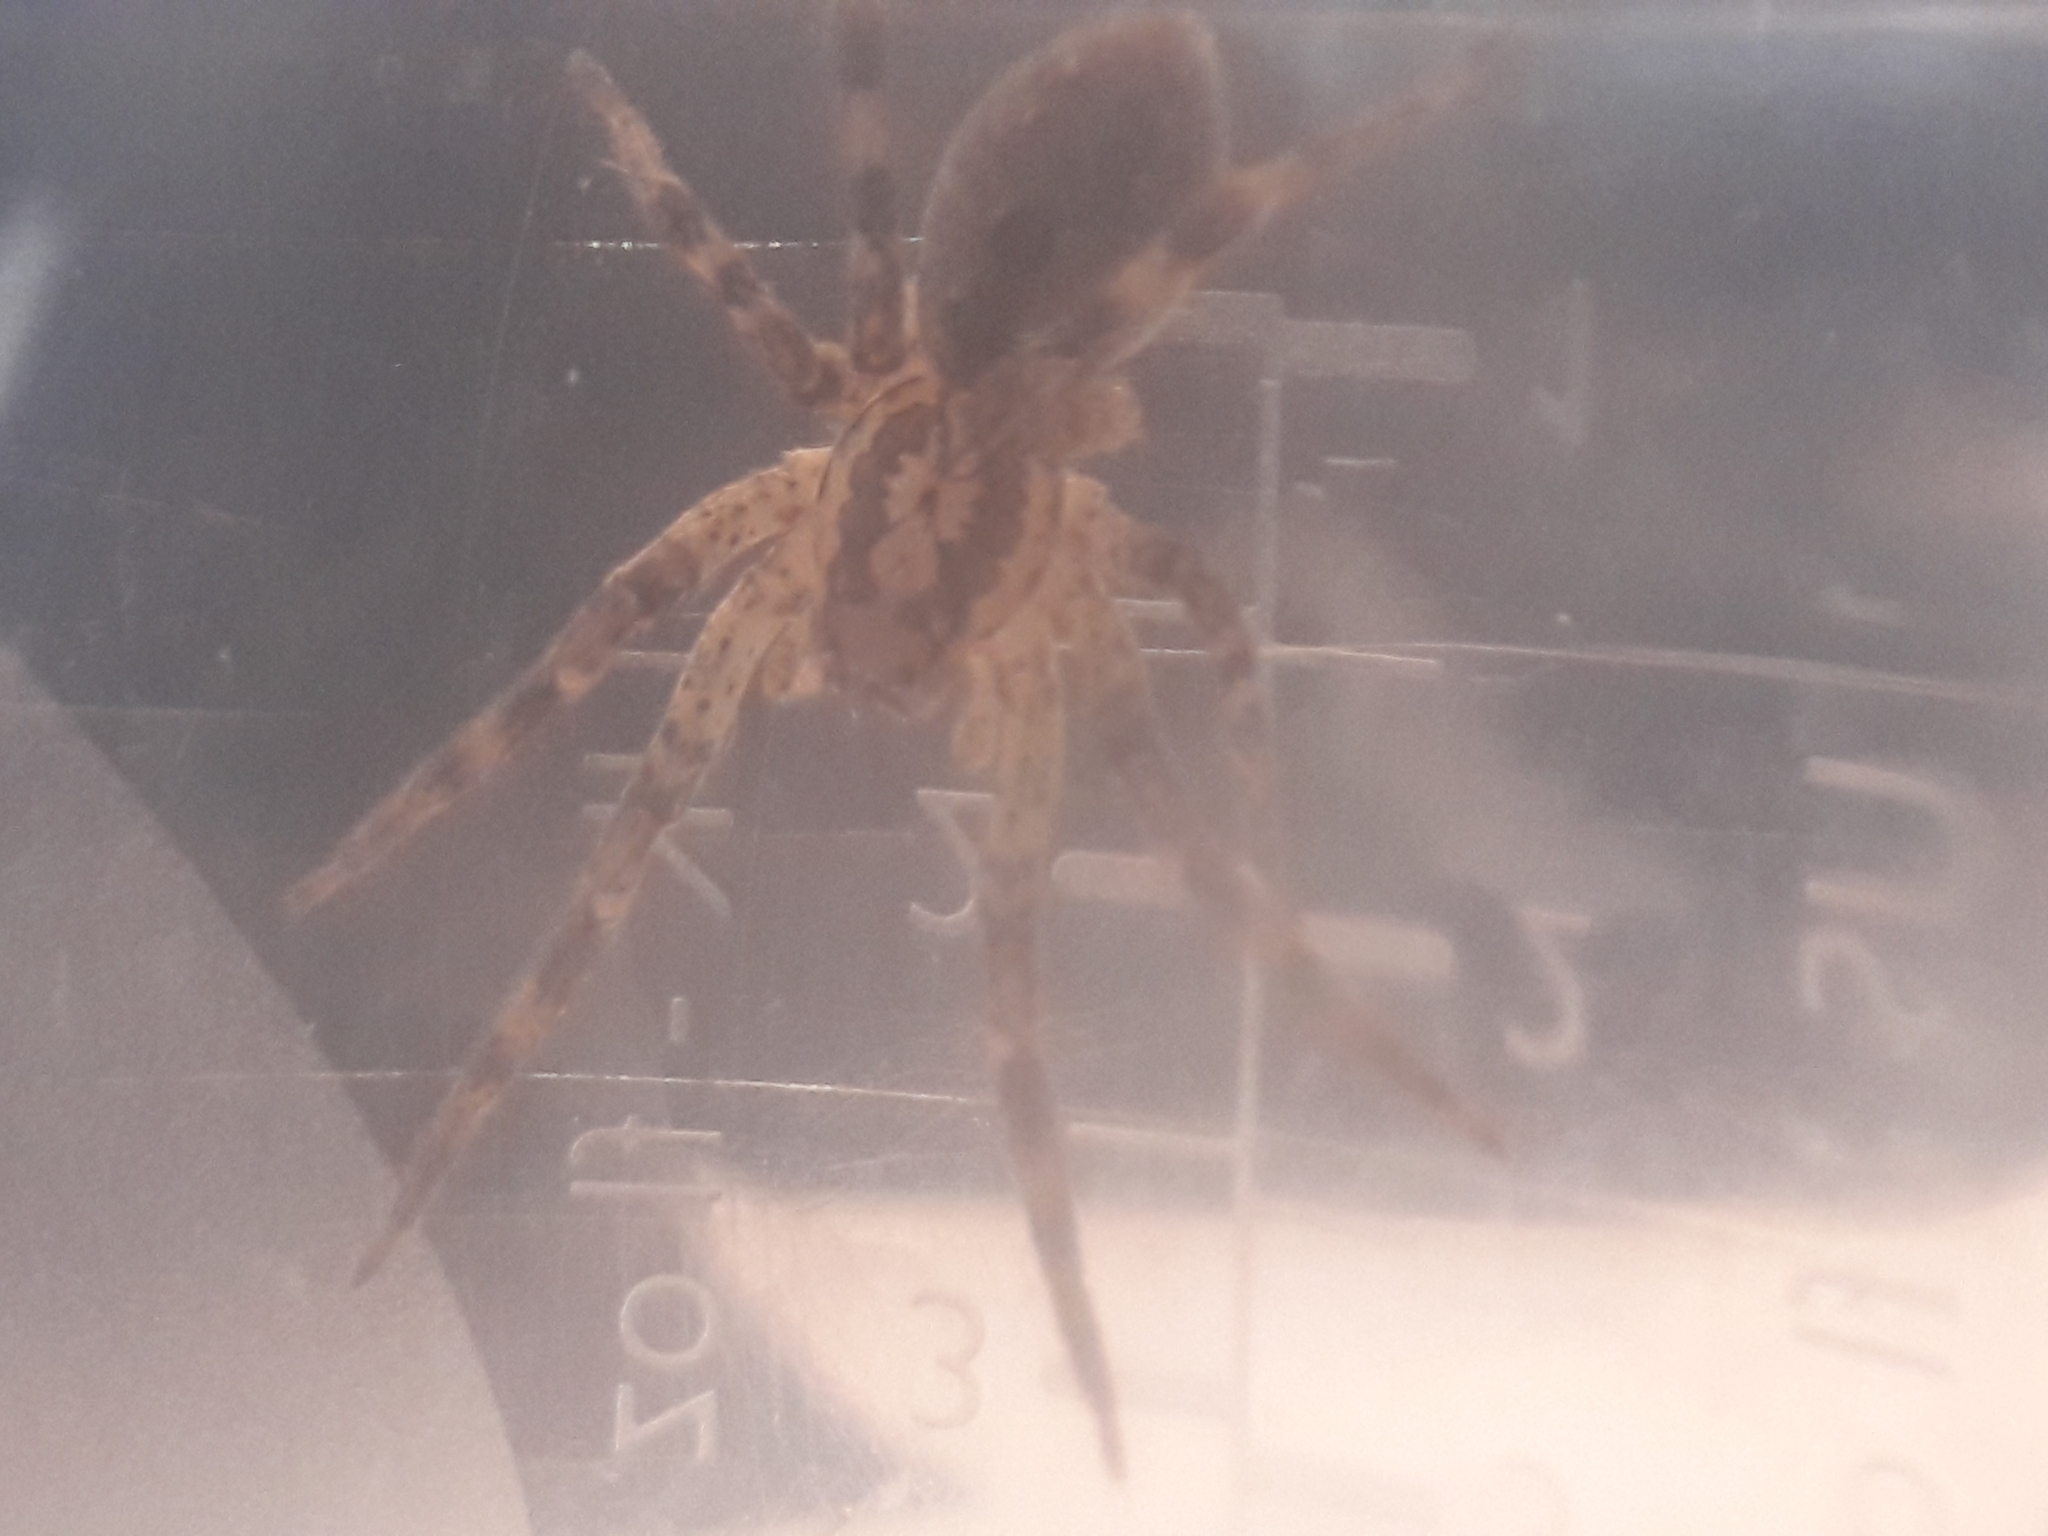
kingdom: Animalia
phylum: Arthropoda
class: Arachnida
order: Araneae
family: Zoropsidae
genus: Zoropsis
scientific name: Zoropsis spinimana
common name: Zoropsid spider
